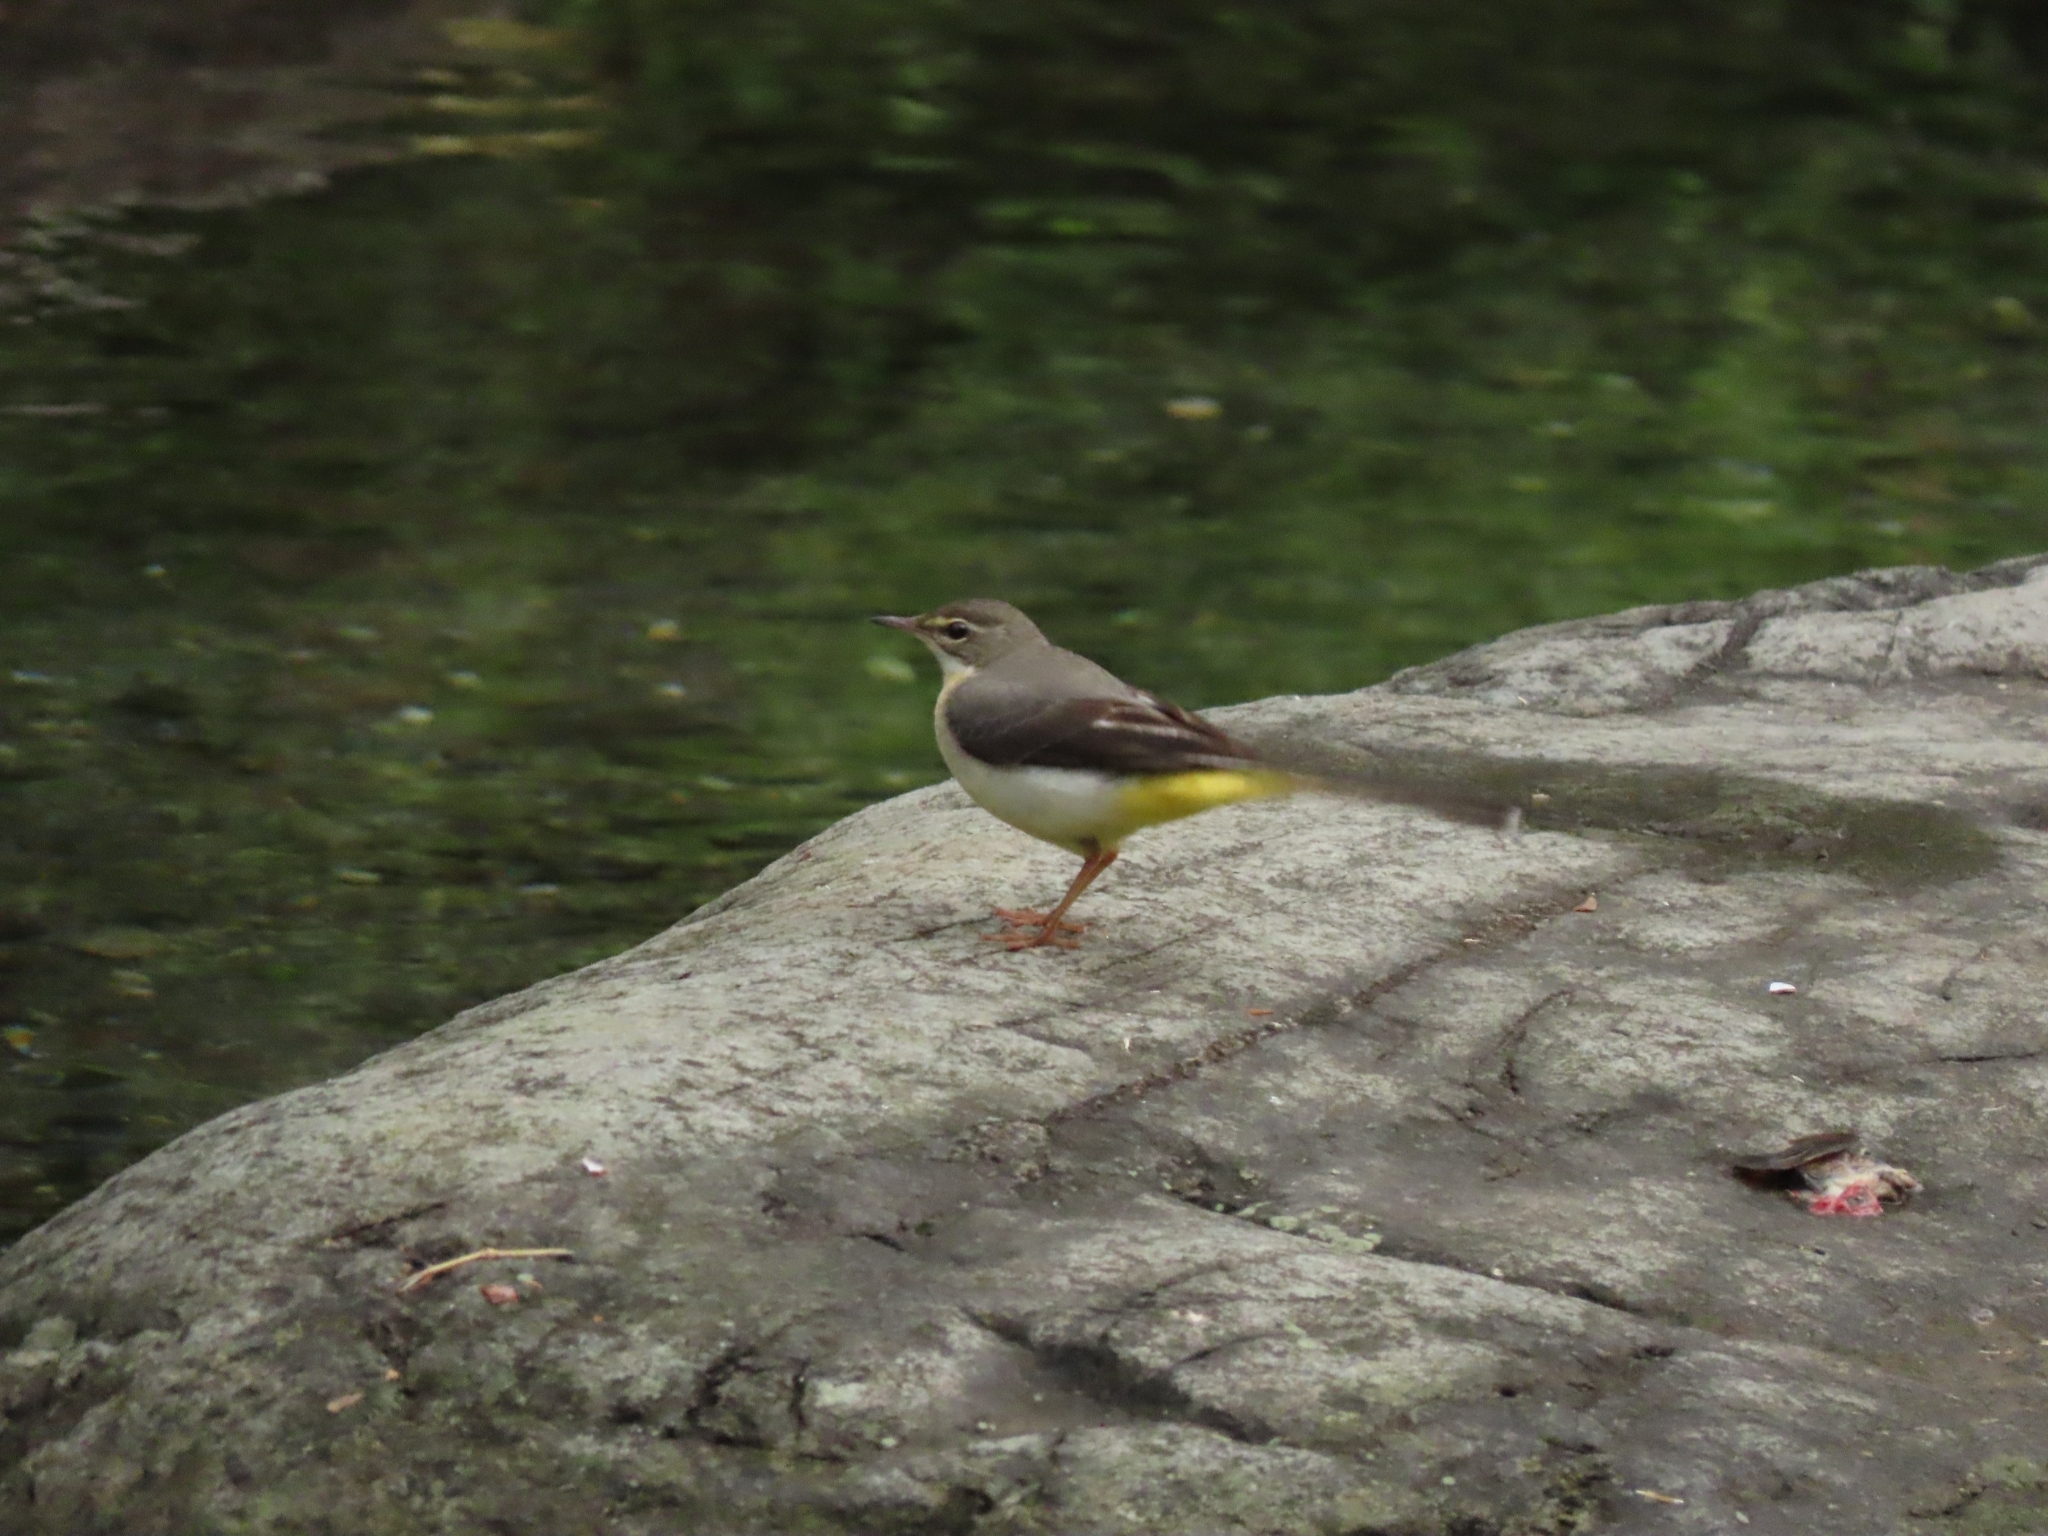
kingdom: Animalia
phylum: Chordata
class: Aves
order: Passeriformes
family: Motacillidae
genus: Motacilla
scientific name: Motacilla cinerea
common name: Grey wagtail
